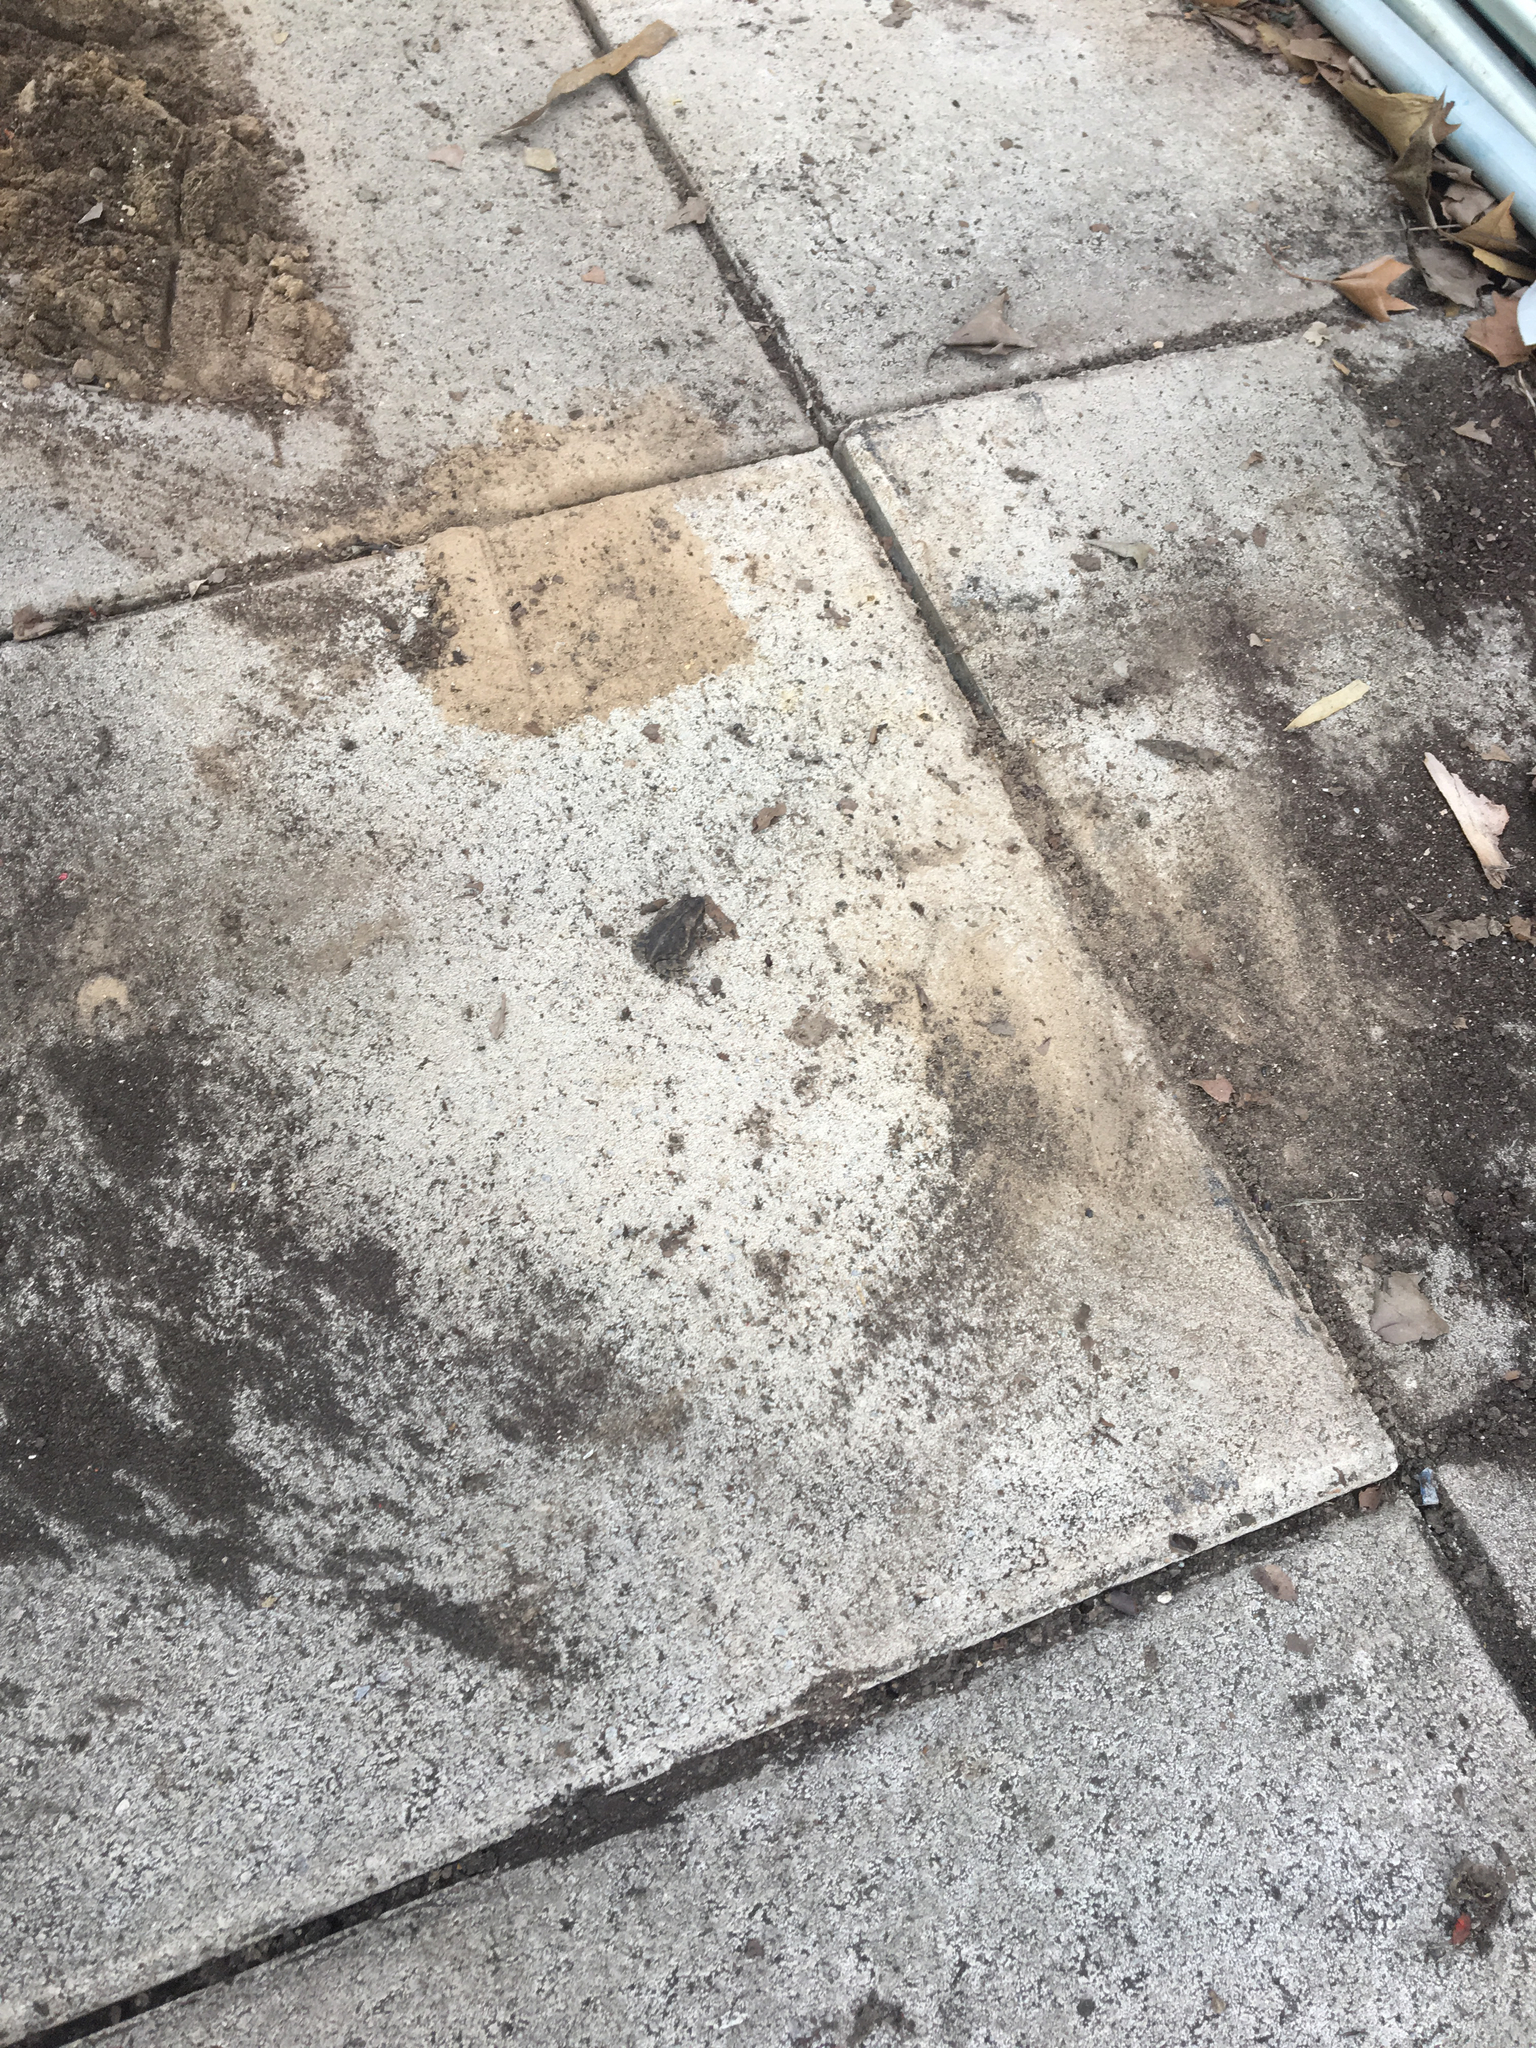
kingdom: Animalia
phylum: Chordata
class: Amphibia
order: Anura
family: Bufonidae
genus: Incilius
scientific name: Incilius nebulifer
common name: Gulf coast toad
